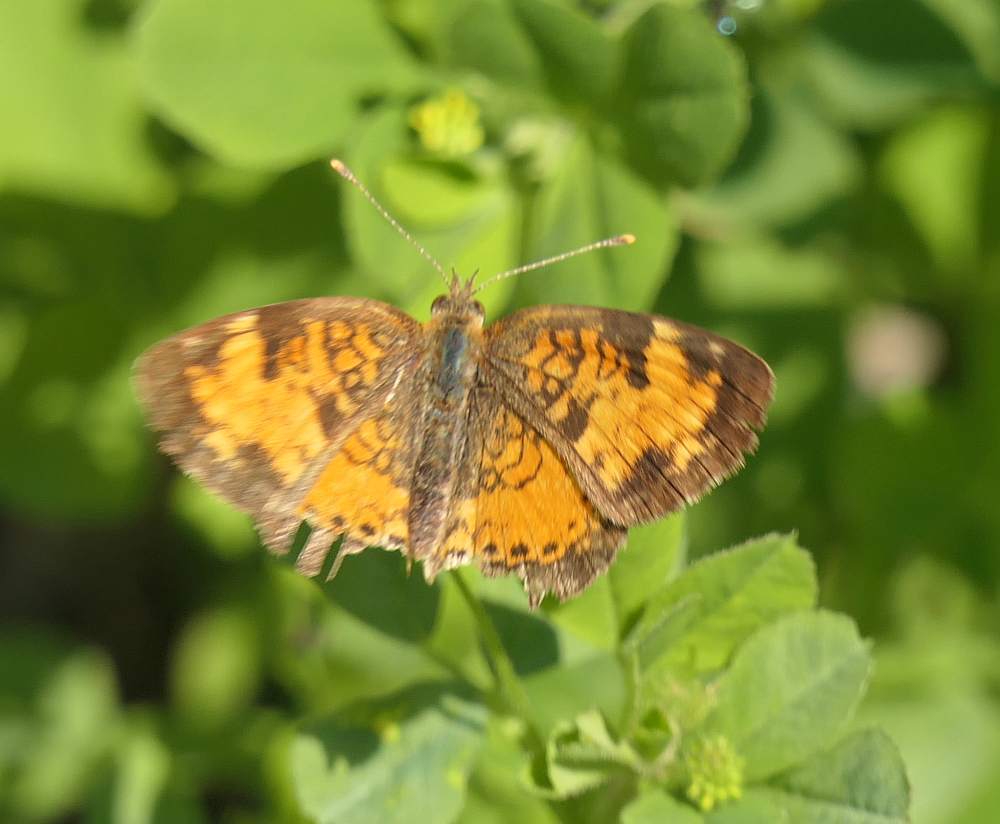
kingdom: Animalia
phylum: Arthropoda
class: Insecta
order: Lepidoptera
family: Nymphalidae
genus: Phyciodes
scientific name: Phyciodes tharos
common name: Pearl crescent
